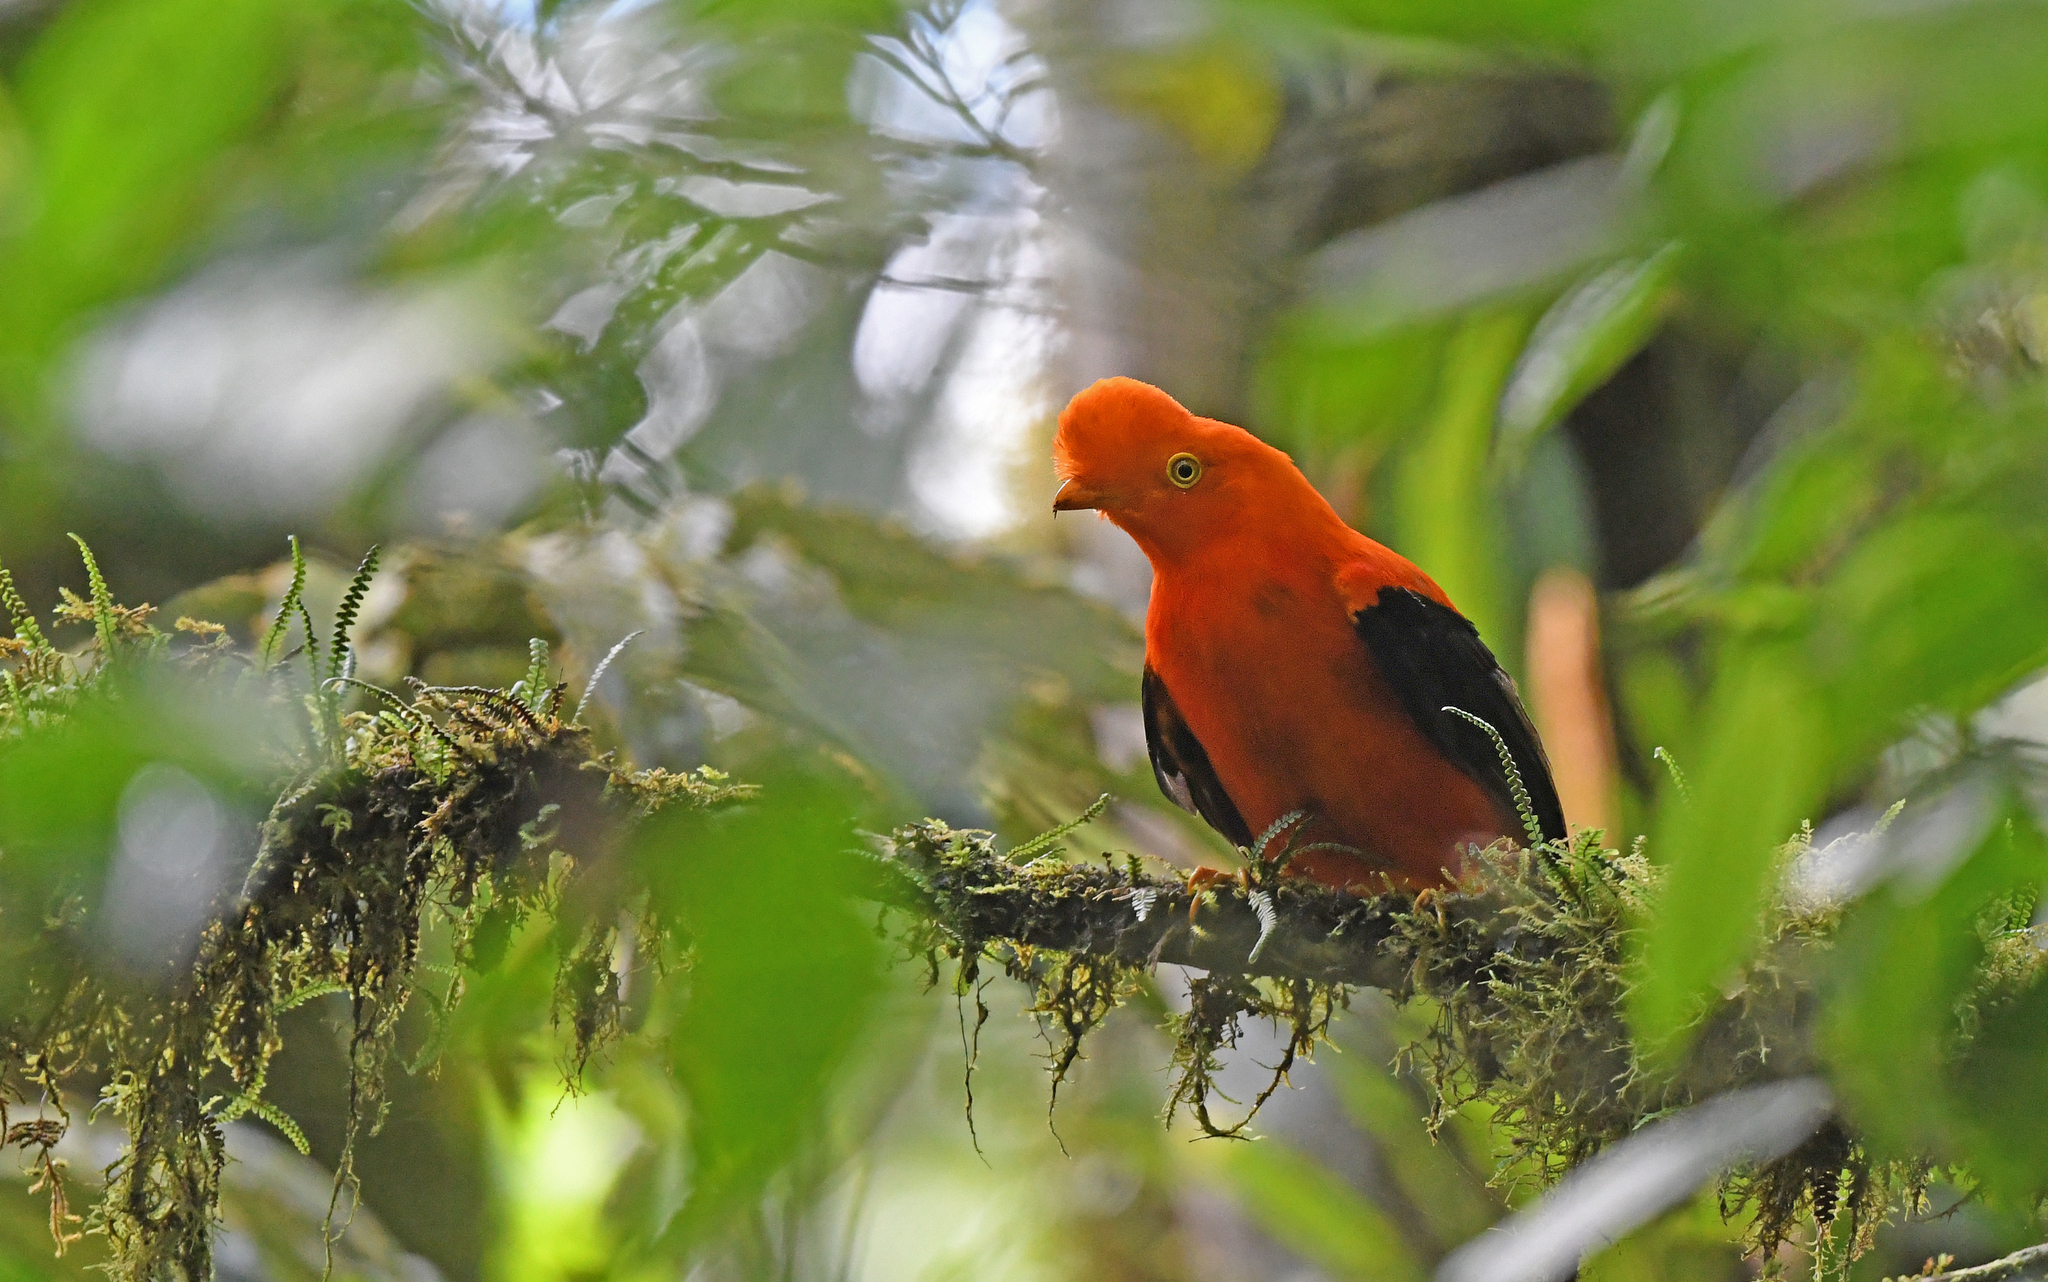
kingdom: Animalia
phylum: Chordata
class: Aves
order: Passeriformes
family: Cotingidae
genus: Rupicola
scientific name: Rupicola peruvianus
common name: Andean cock-of-the-rock
